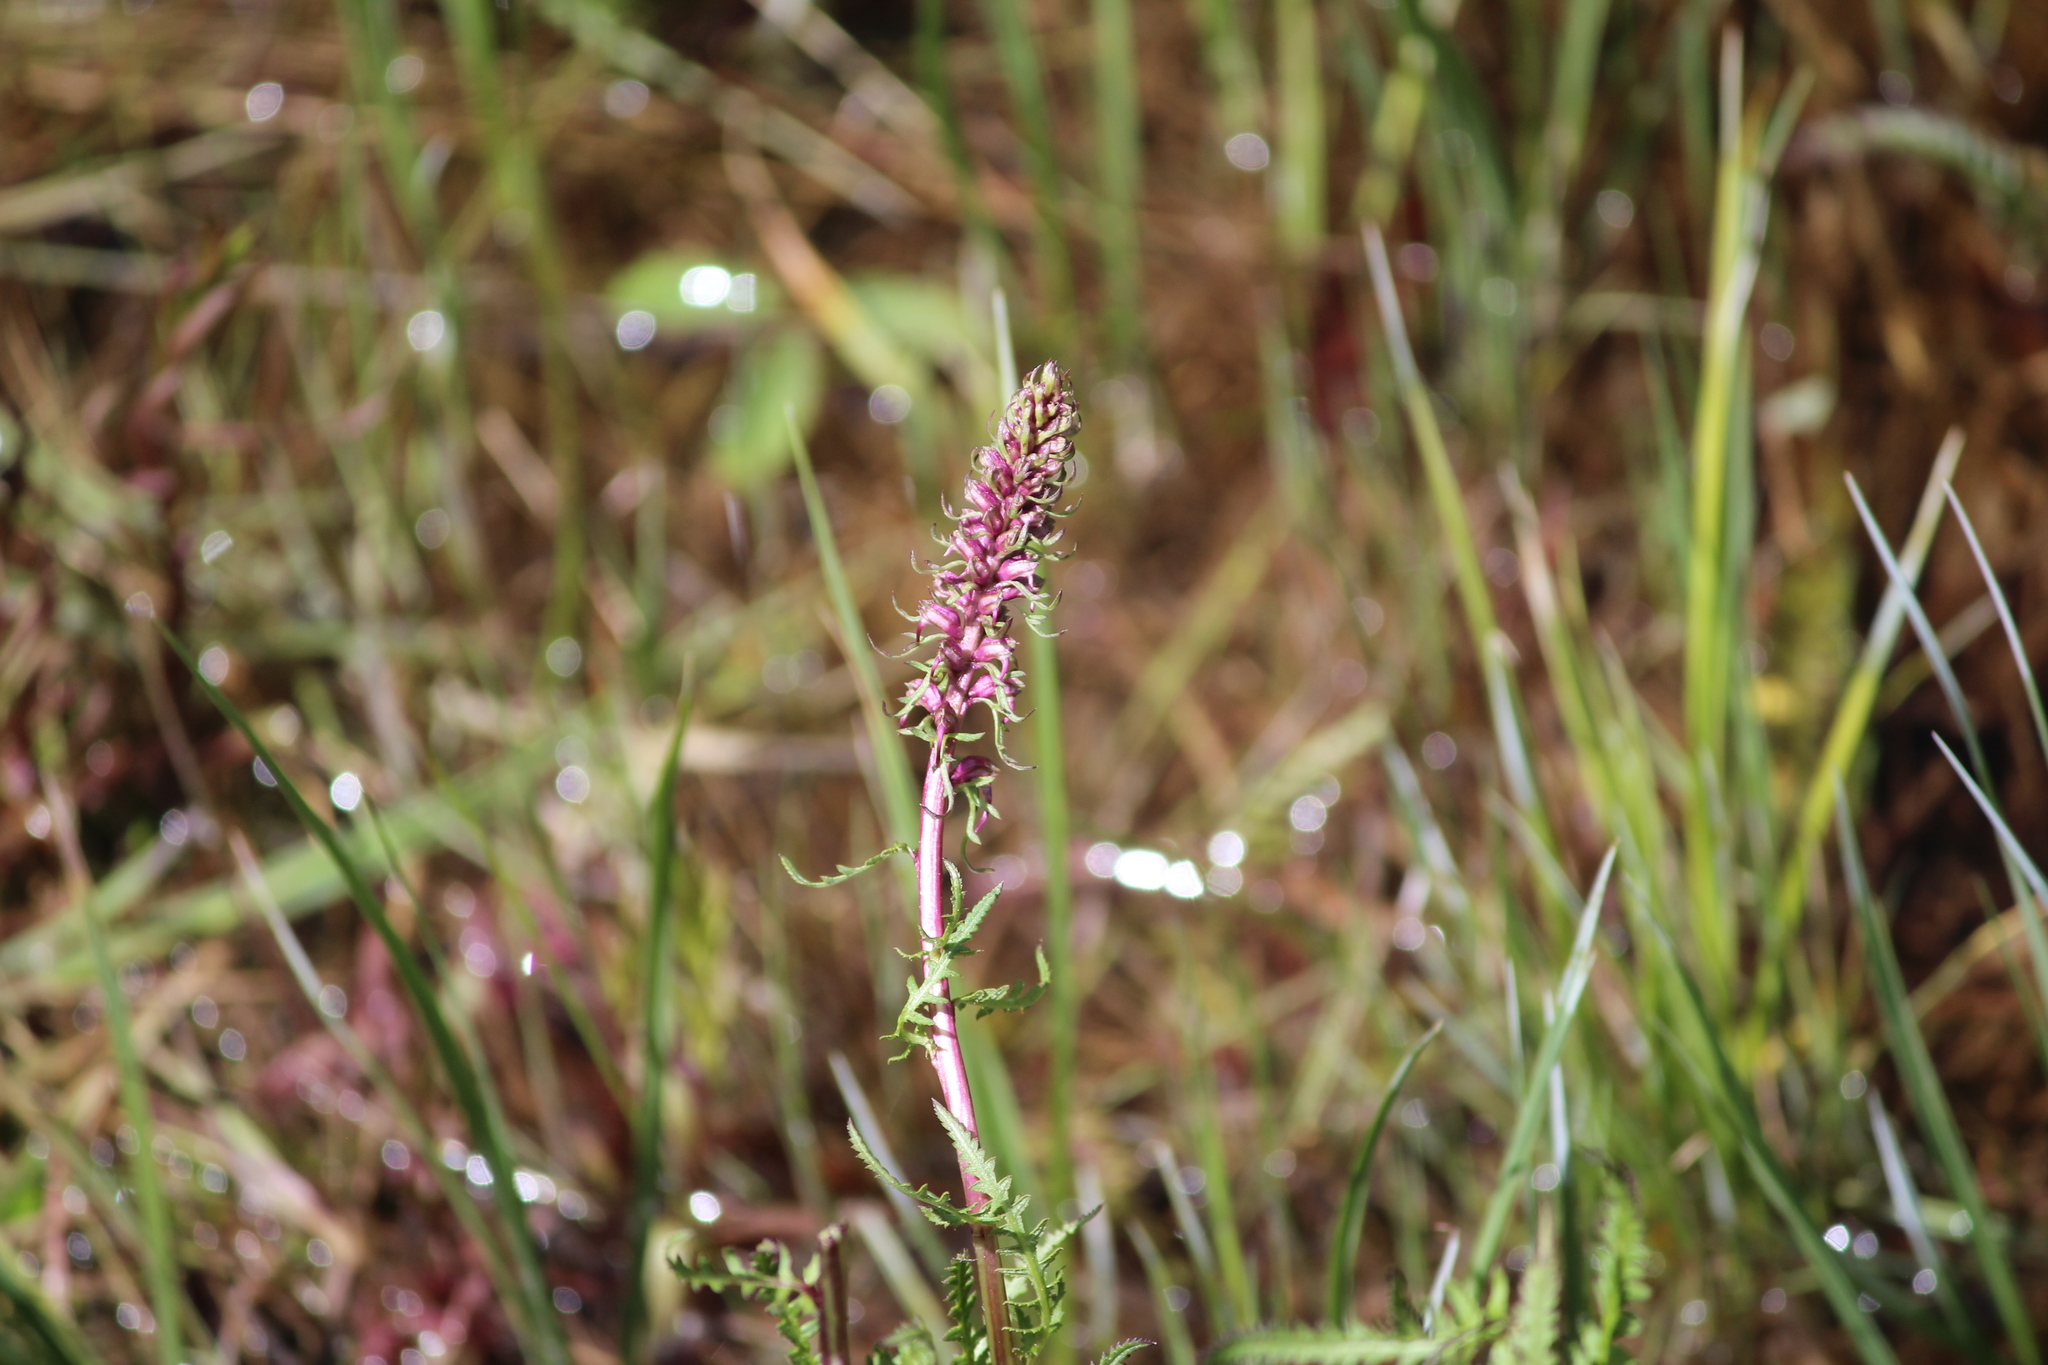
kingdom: Plantae
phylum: Tracheophyta
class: Magnoliopsida
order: Lamiales
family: Orobanchaceae
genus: Pedicularis
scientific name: Pedicularis groenlandica
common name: Elephant's-head
